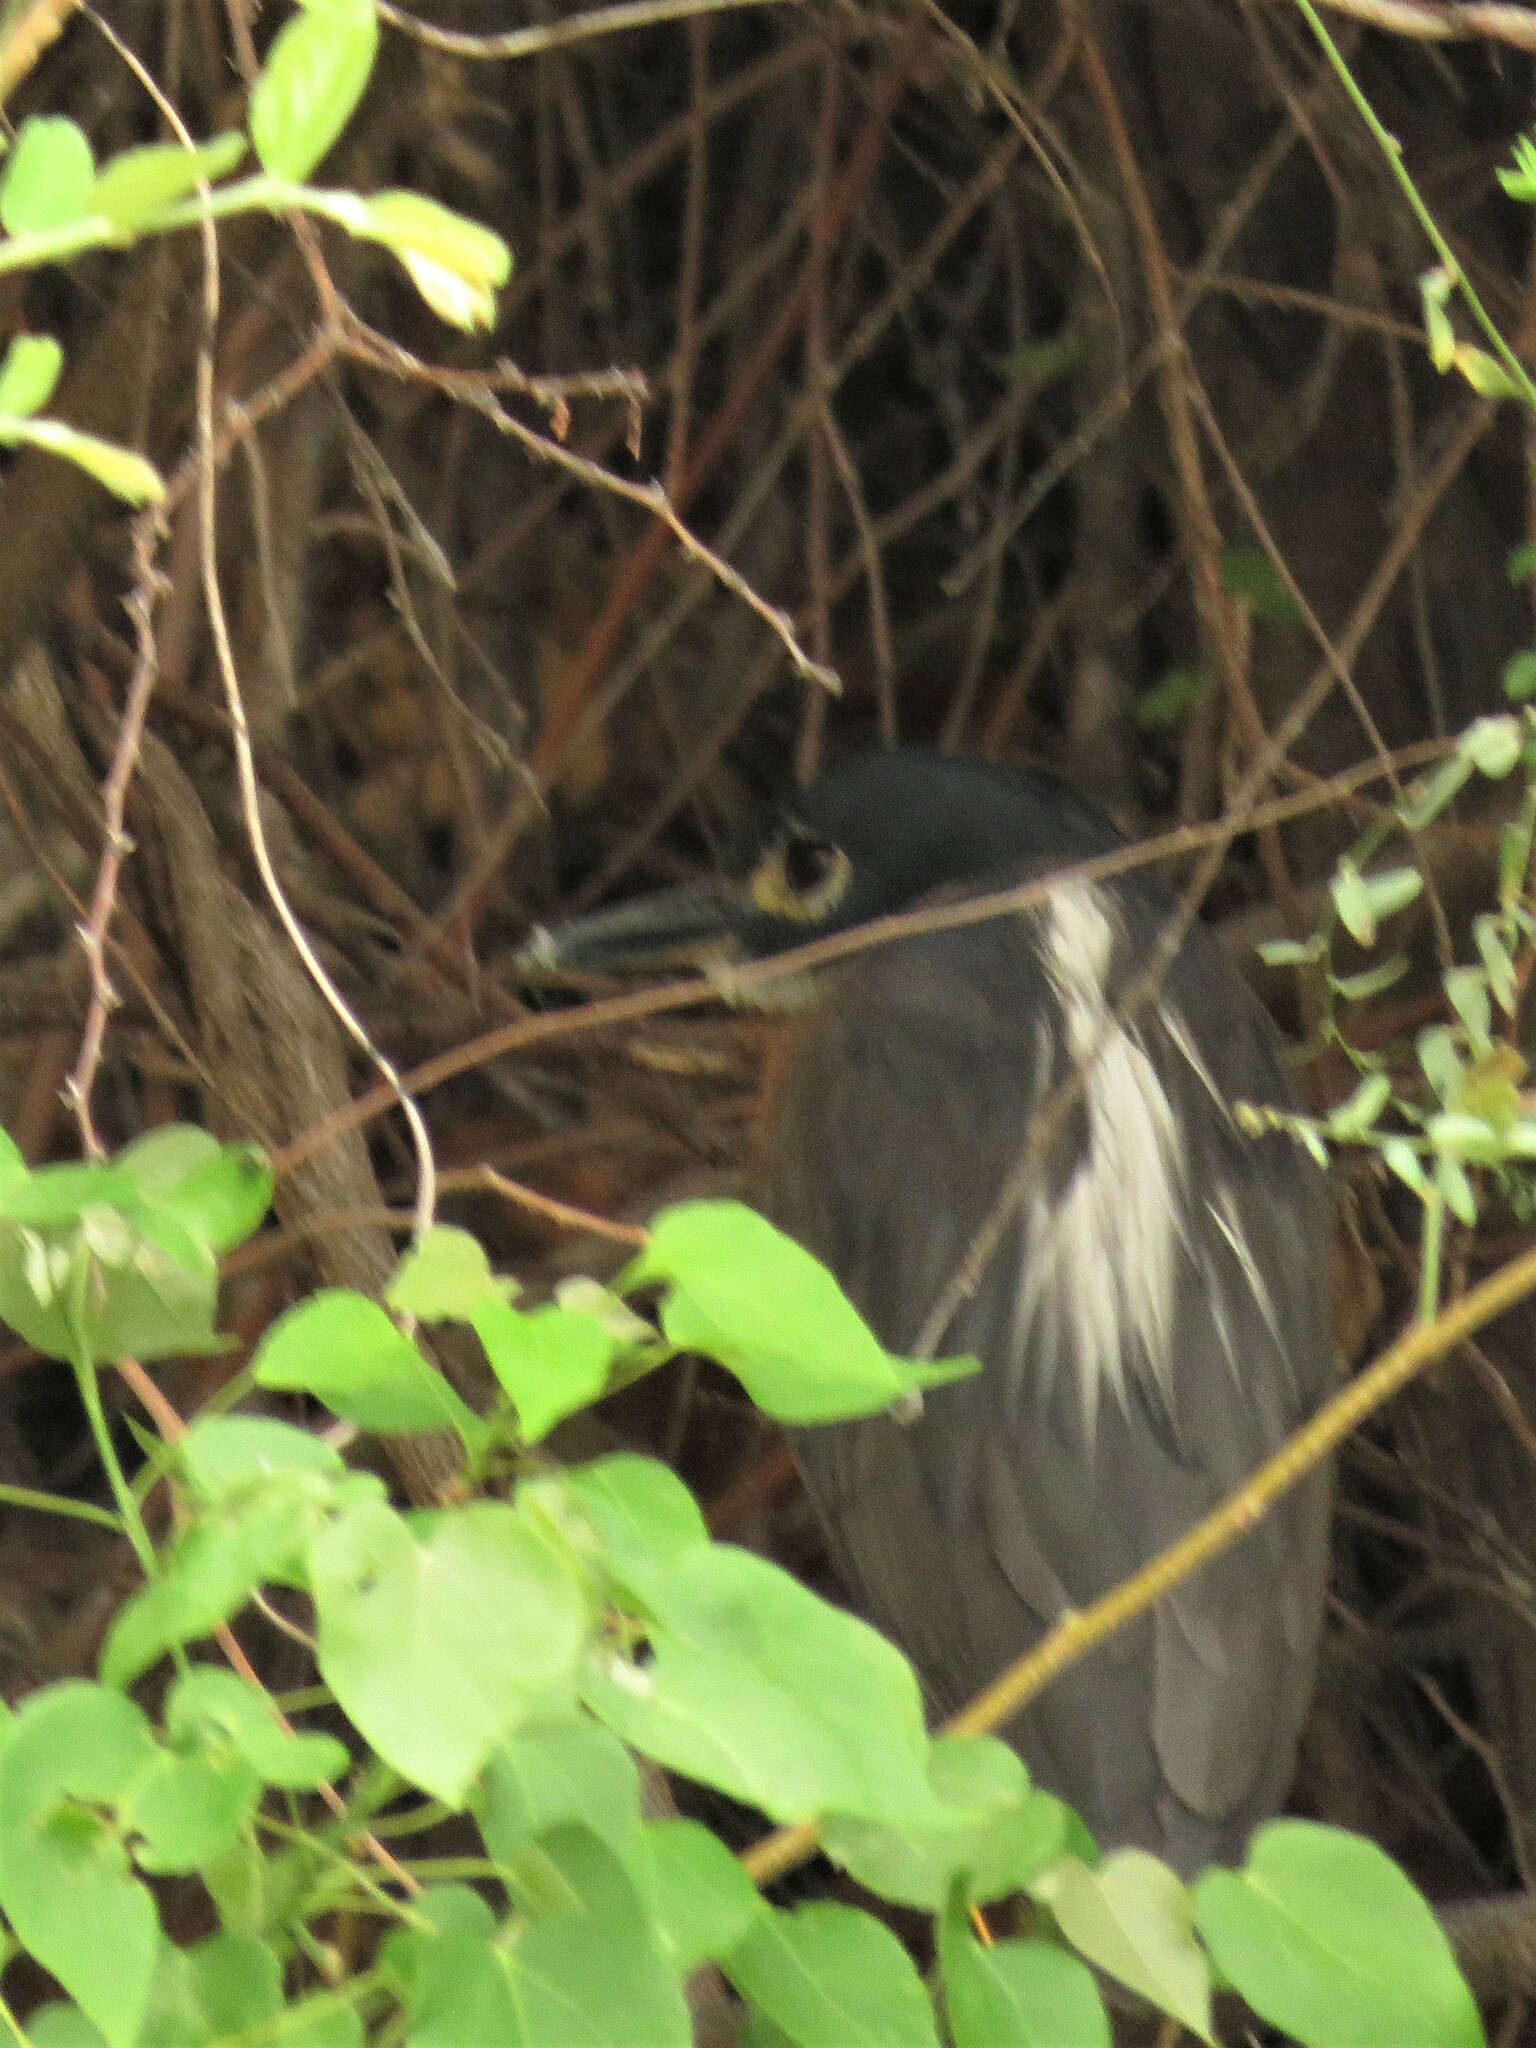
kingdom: Animalia
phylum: Chordata
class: Aves
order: Pelecaniformes
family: Ardeidae
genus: Gorsachius
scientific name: Gorsachius leuconotus
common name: White-backed night heron
